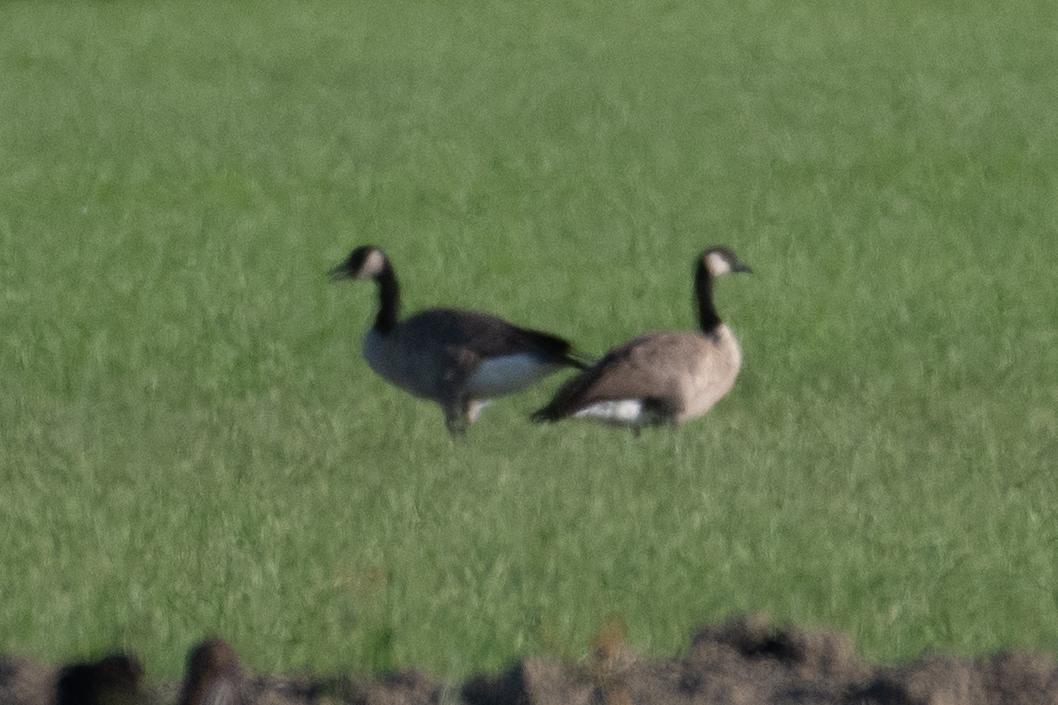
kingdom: Animalia
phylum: Chordata
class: Aves
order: Anseriformes
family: Anatidae
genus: Branta
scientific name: Branta canadensis
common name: Canada goose
